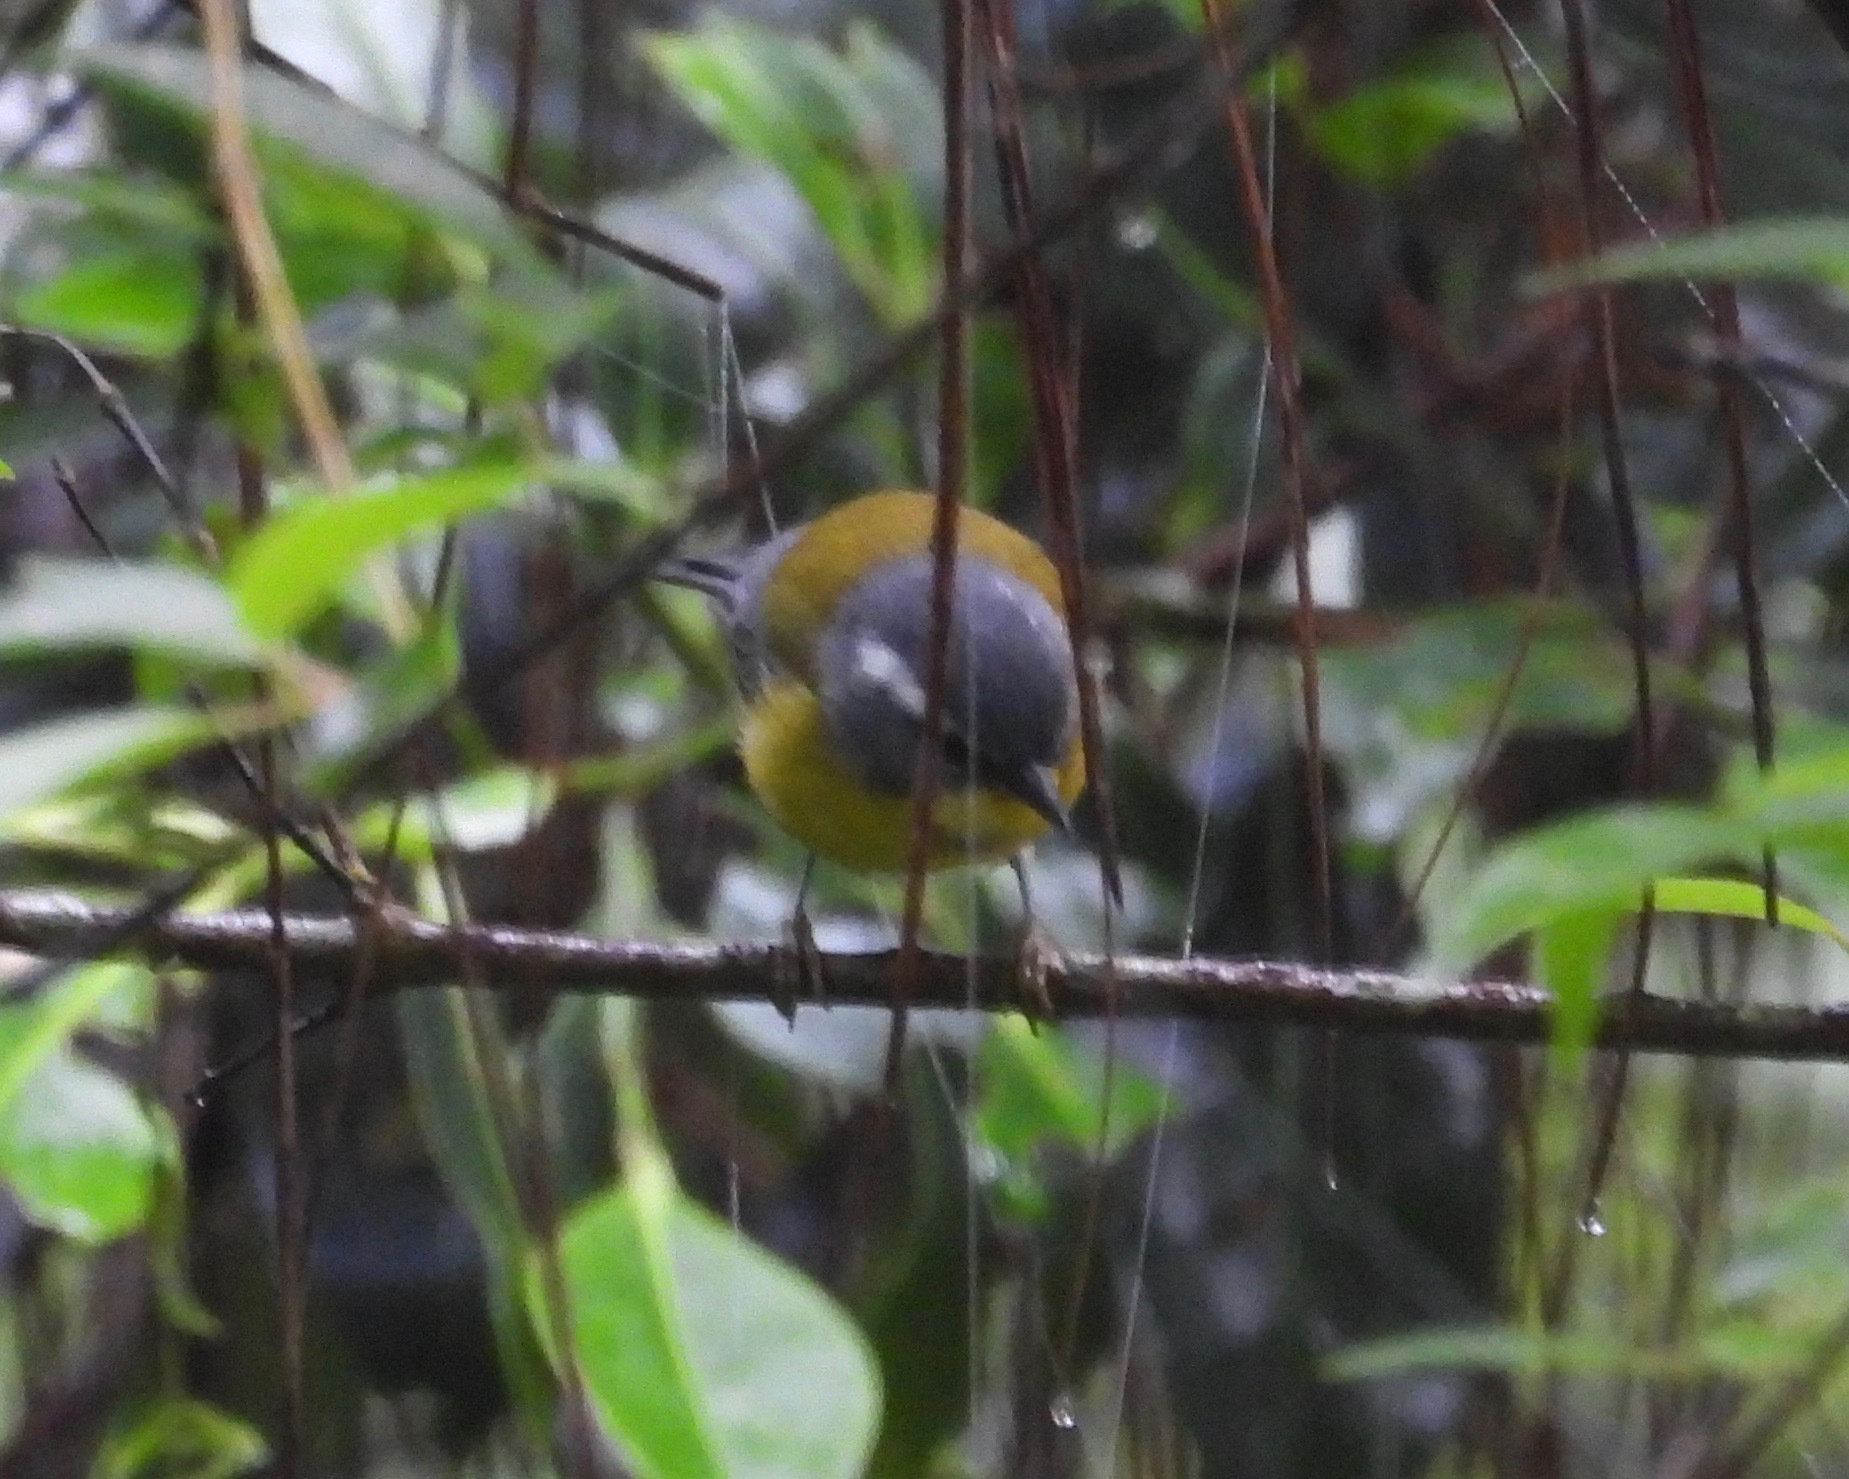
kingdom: Animalia
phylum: Chordata
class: Aves
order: Passeriformes
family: Parulidae
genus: Oreothlypis
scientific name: Oreothlypis superciliosa
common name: Crescent-chested warbler
